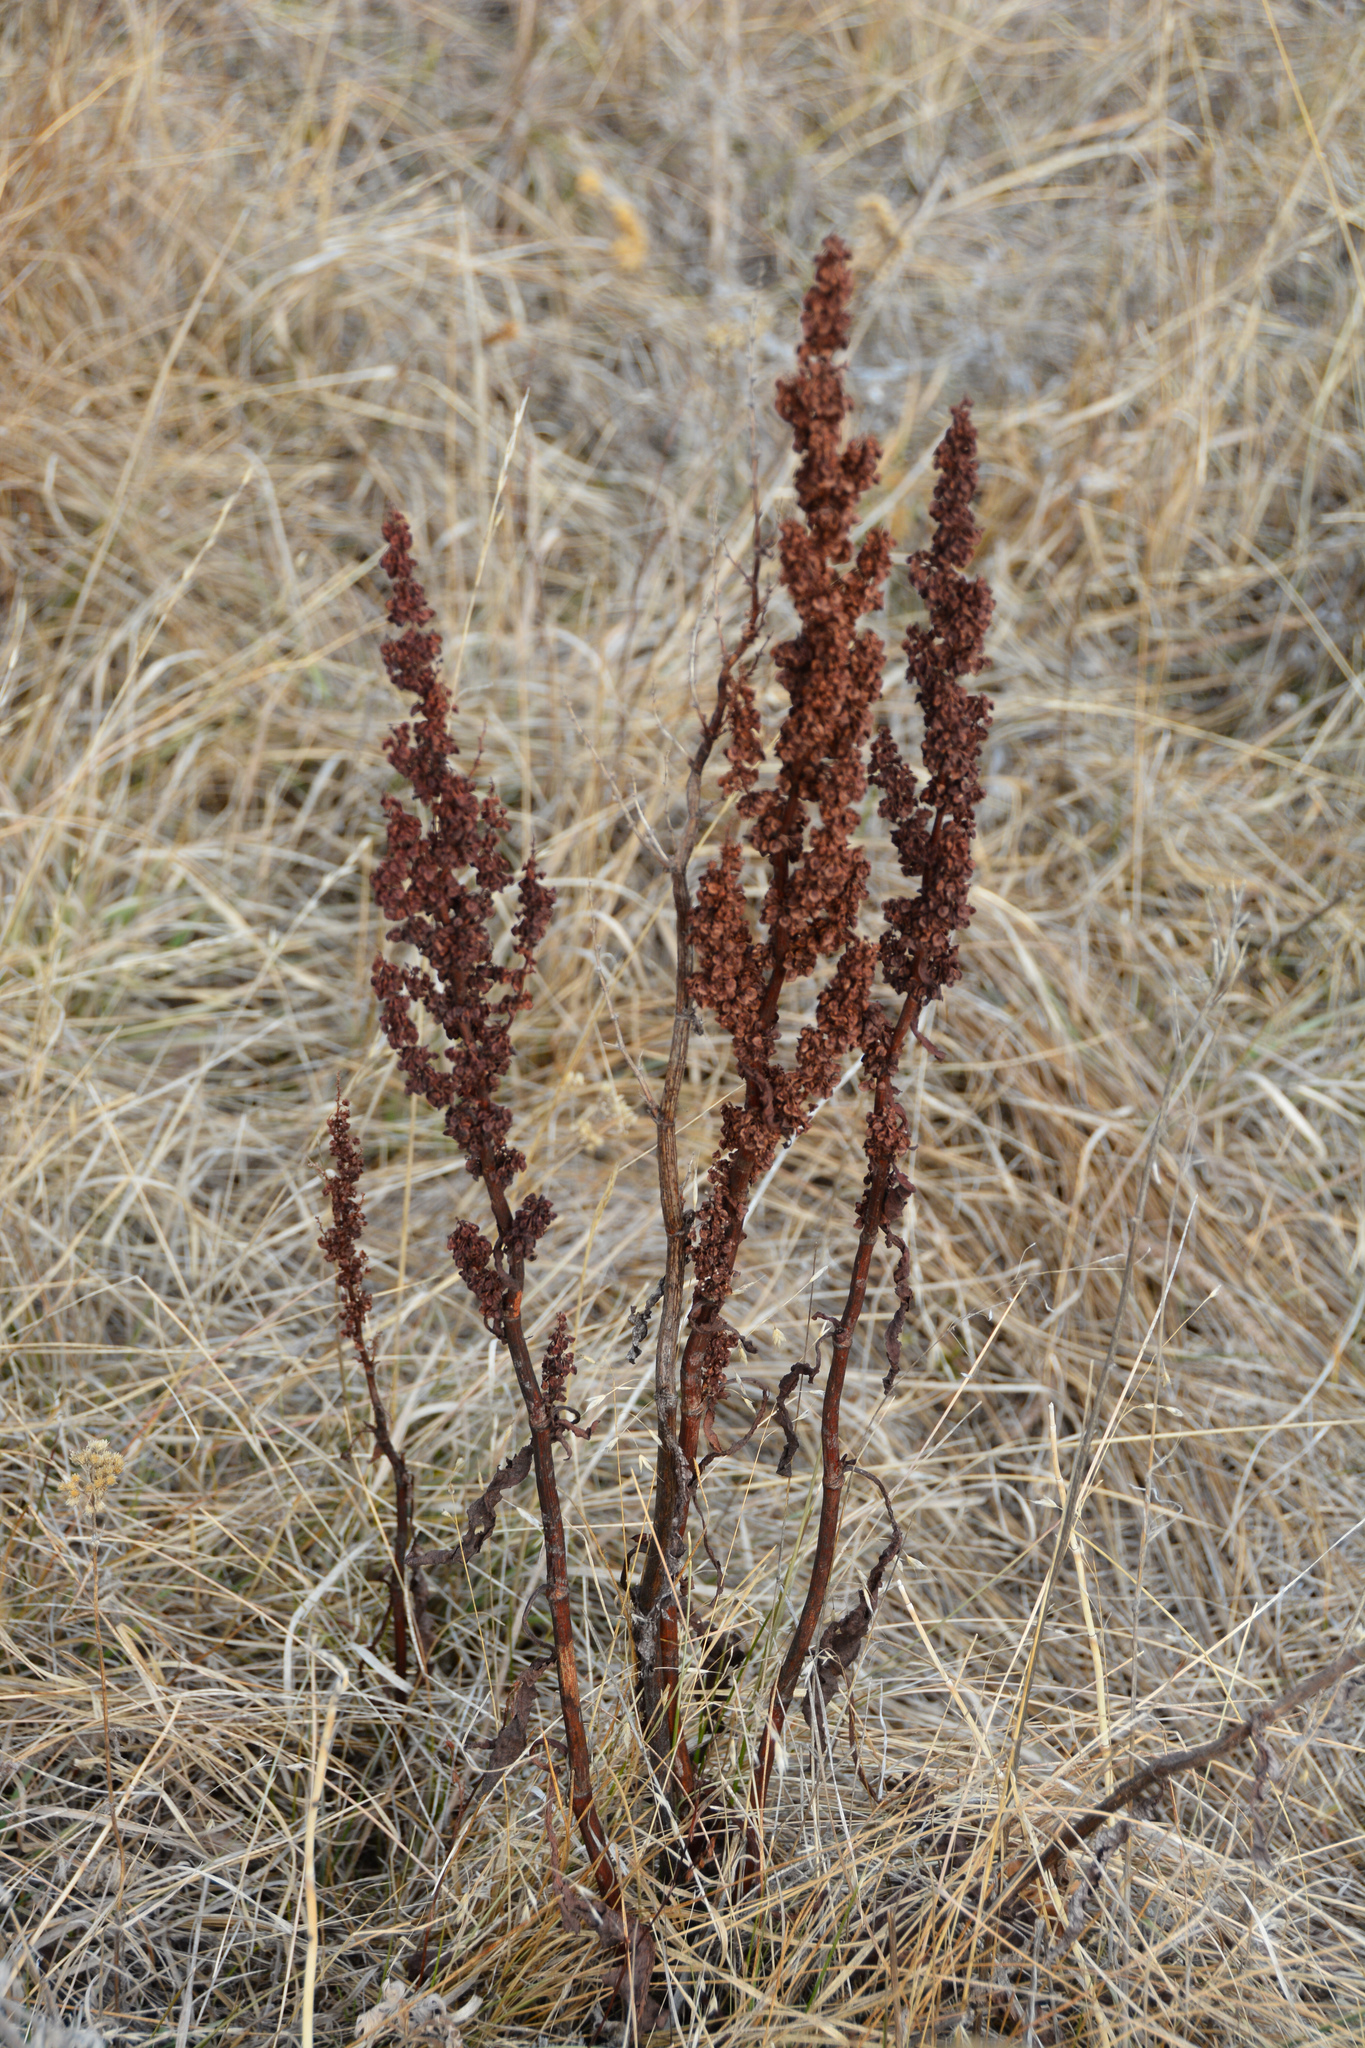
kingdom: Plantae
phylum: Tracheophyta
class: Magnoliopsida
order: Caryophyllales
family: Polygonaceae
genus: Rumex
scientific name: Rumex crispus
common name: Curled dock
